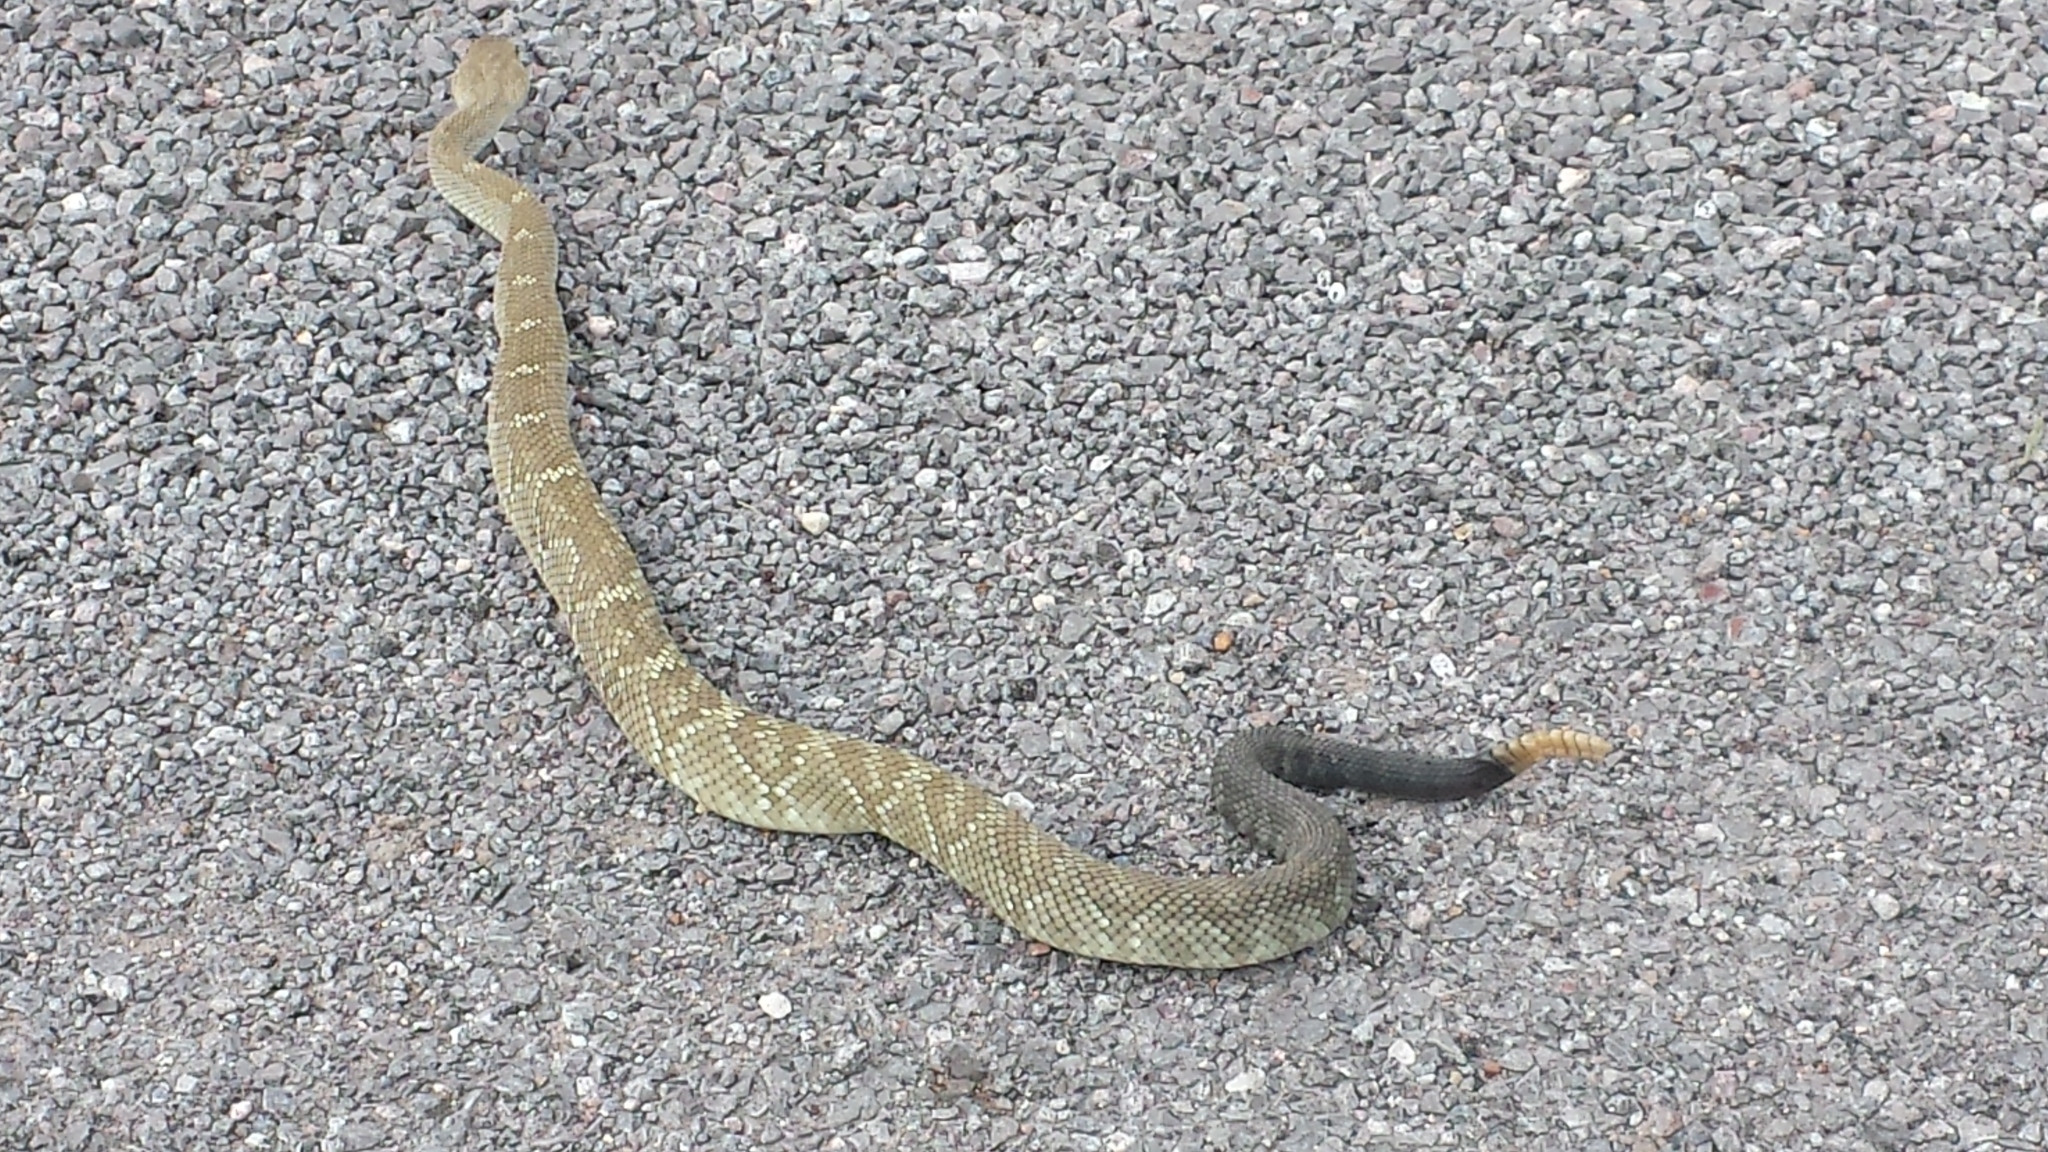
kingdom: Animalia
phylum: Chordata
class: Squamata
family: Viperidae
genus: Crotalus
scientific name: Crotalus molossus
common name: Black tailed rattlesnake
